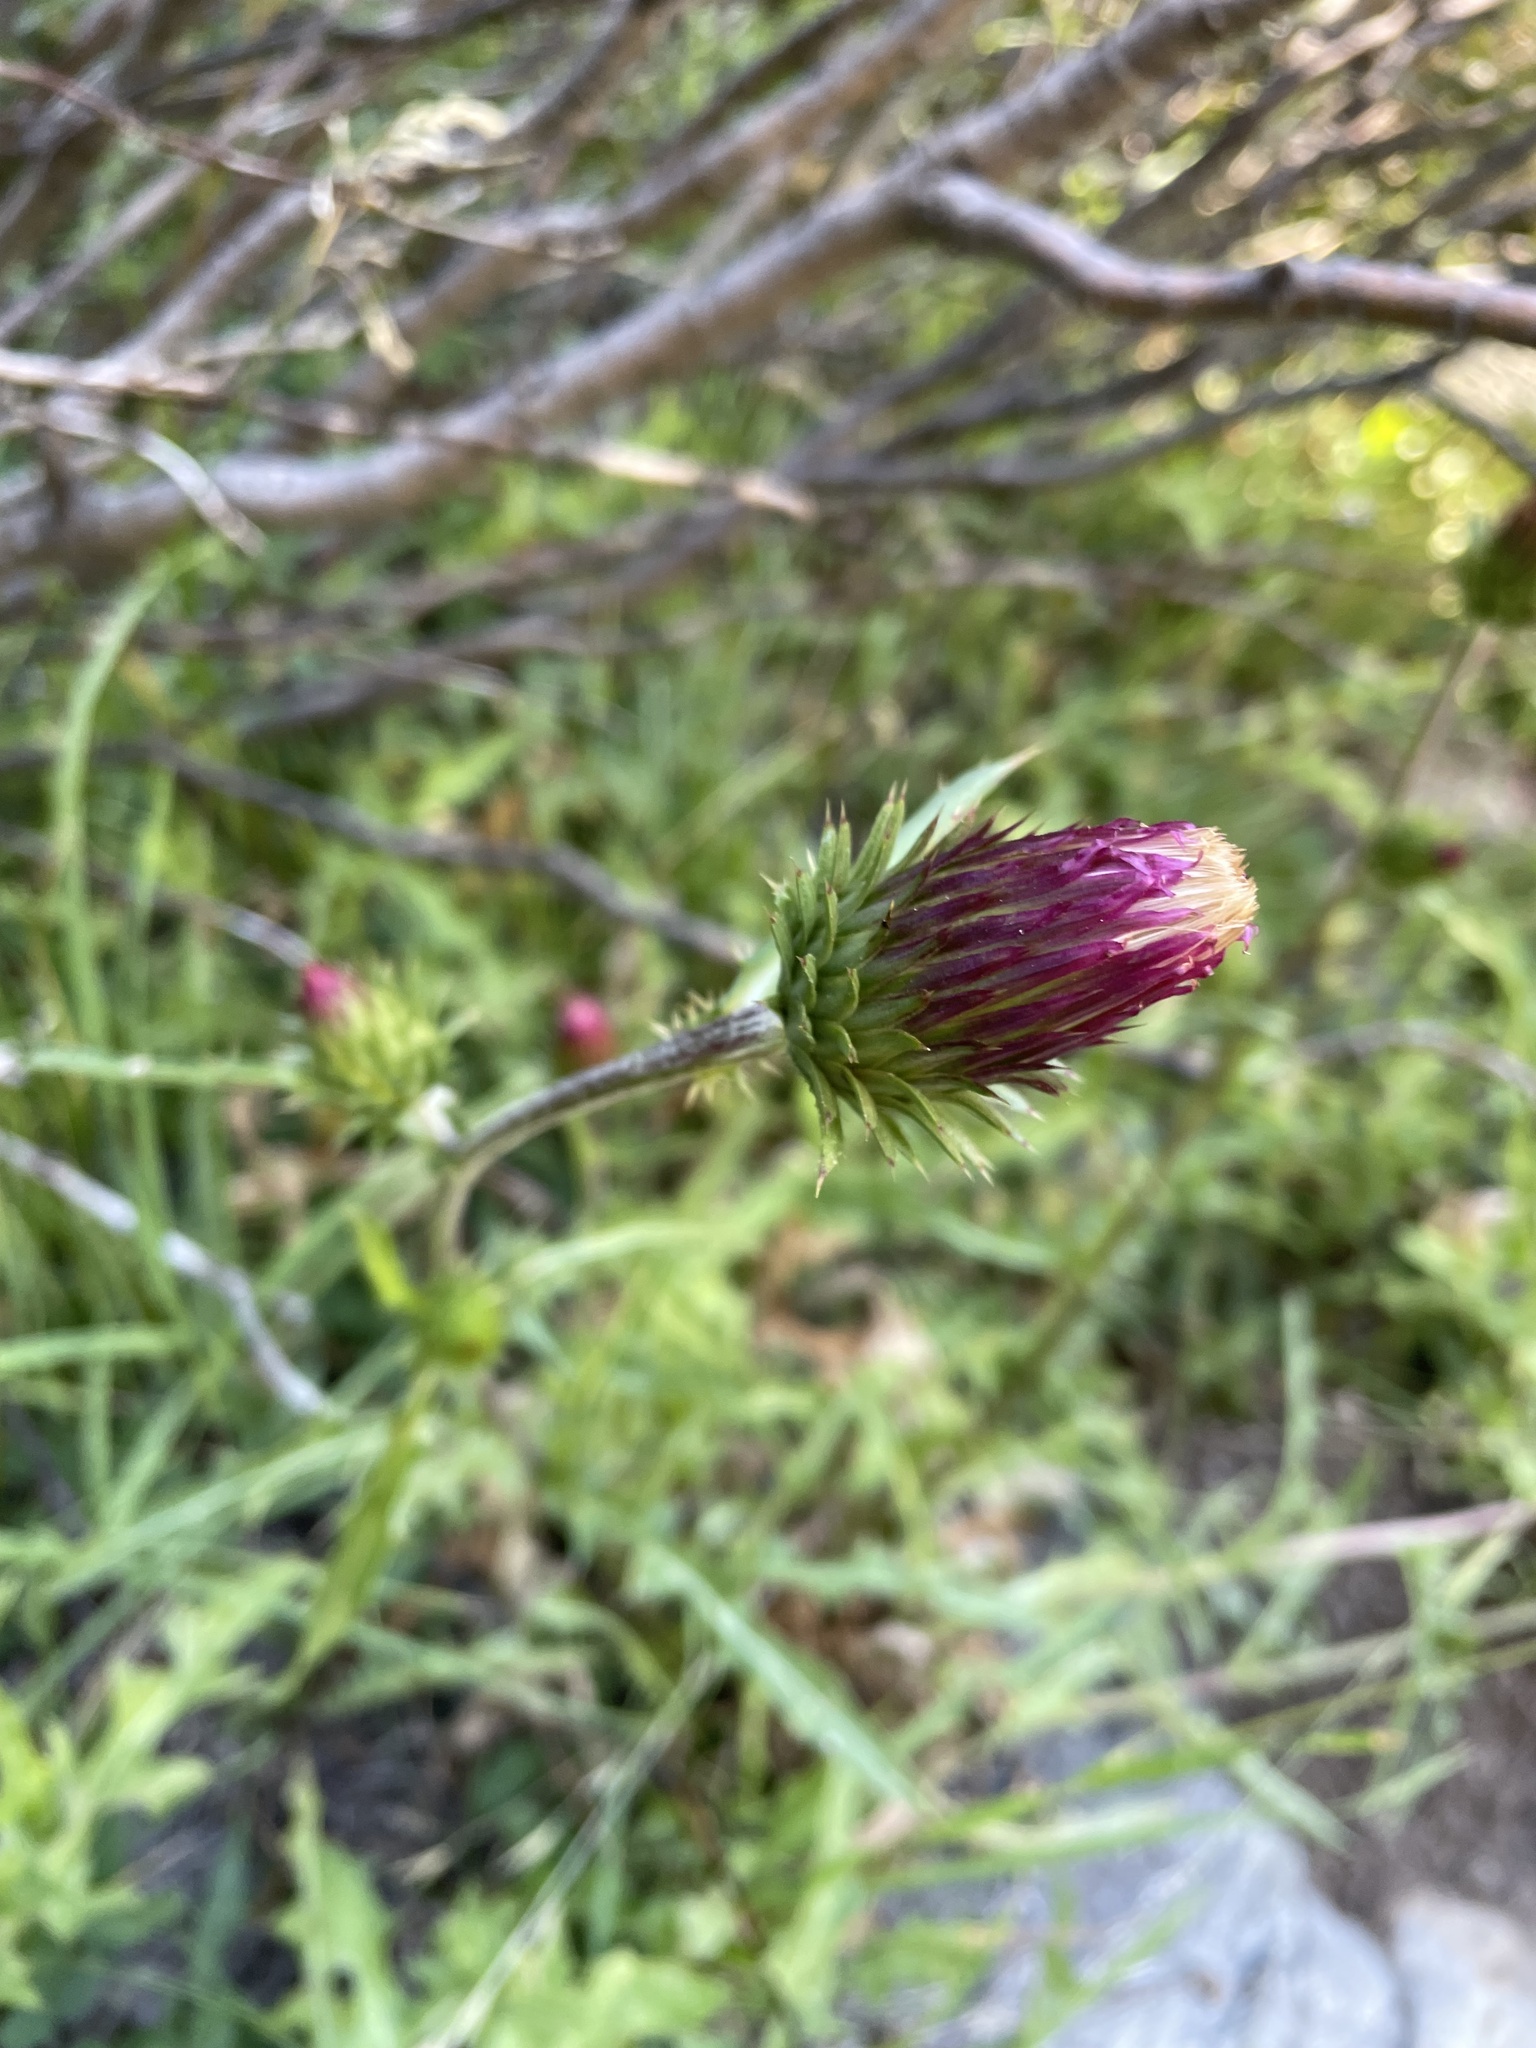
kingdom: Plantae
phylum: Tracheophyta
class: Magnoliopsida
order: Asterales
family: Asteraceae
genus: Cirsium
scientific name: Cirsium andersonii
